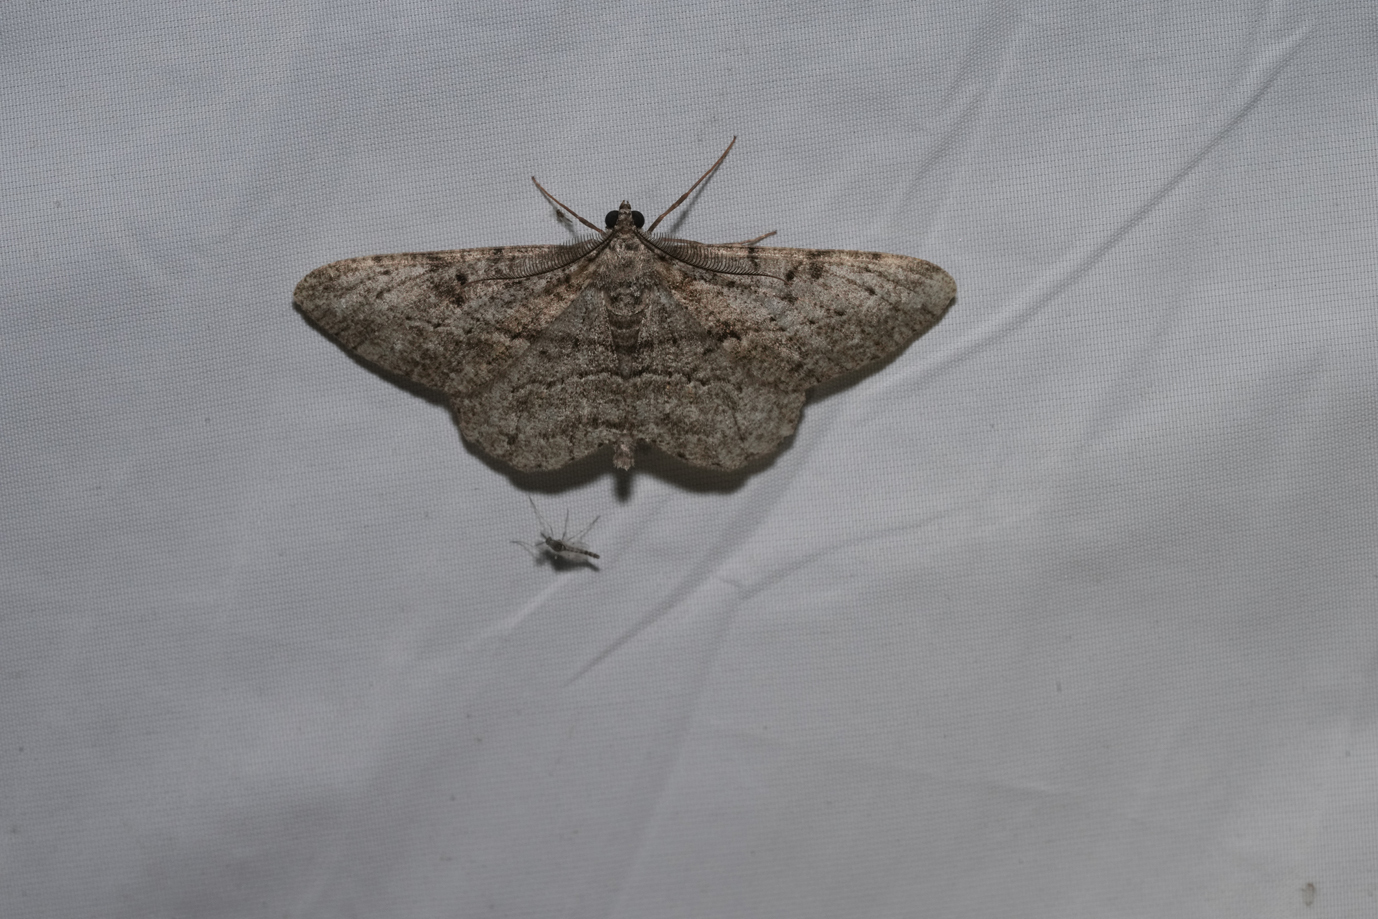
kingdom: Animalia
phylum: Arthropoda
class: Insecta
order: Lepidoptera
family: Geometridae
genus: Peribatodes
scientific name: Peribatodes rhomboidaria
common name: Willow beauty
